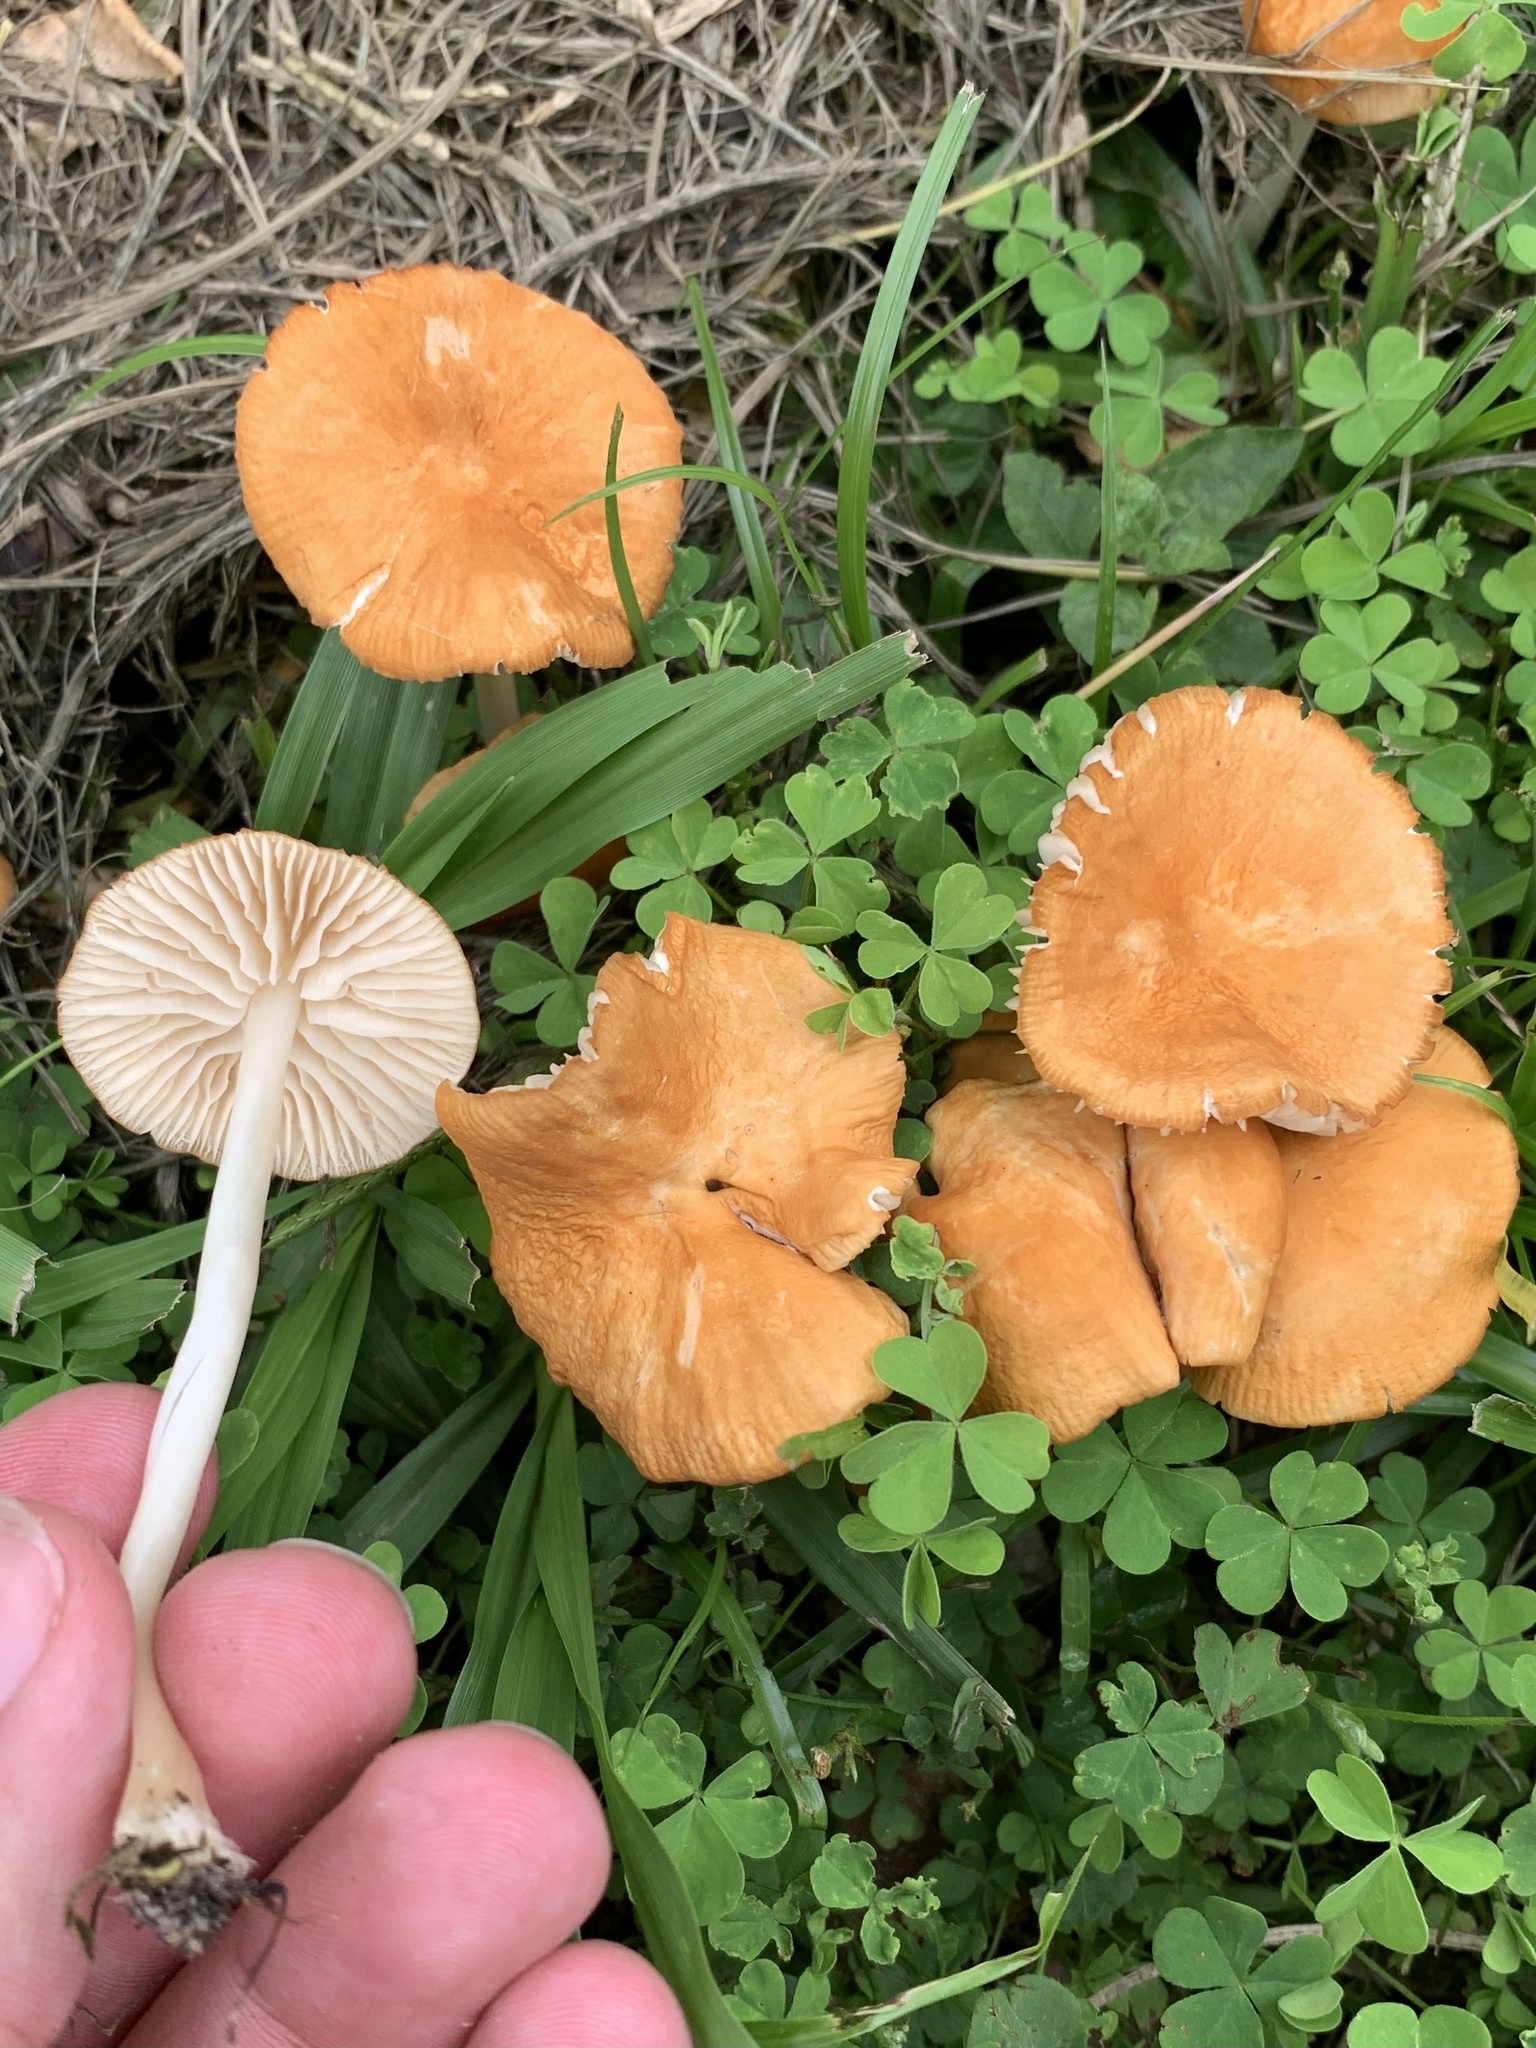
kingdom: Fungi
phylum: Basidiomycota
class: Agaricomycetes
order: Agaricales
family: Marasmiaceae
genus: Marasmius
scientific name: Marasmius vagus
